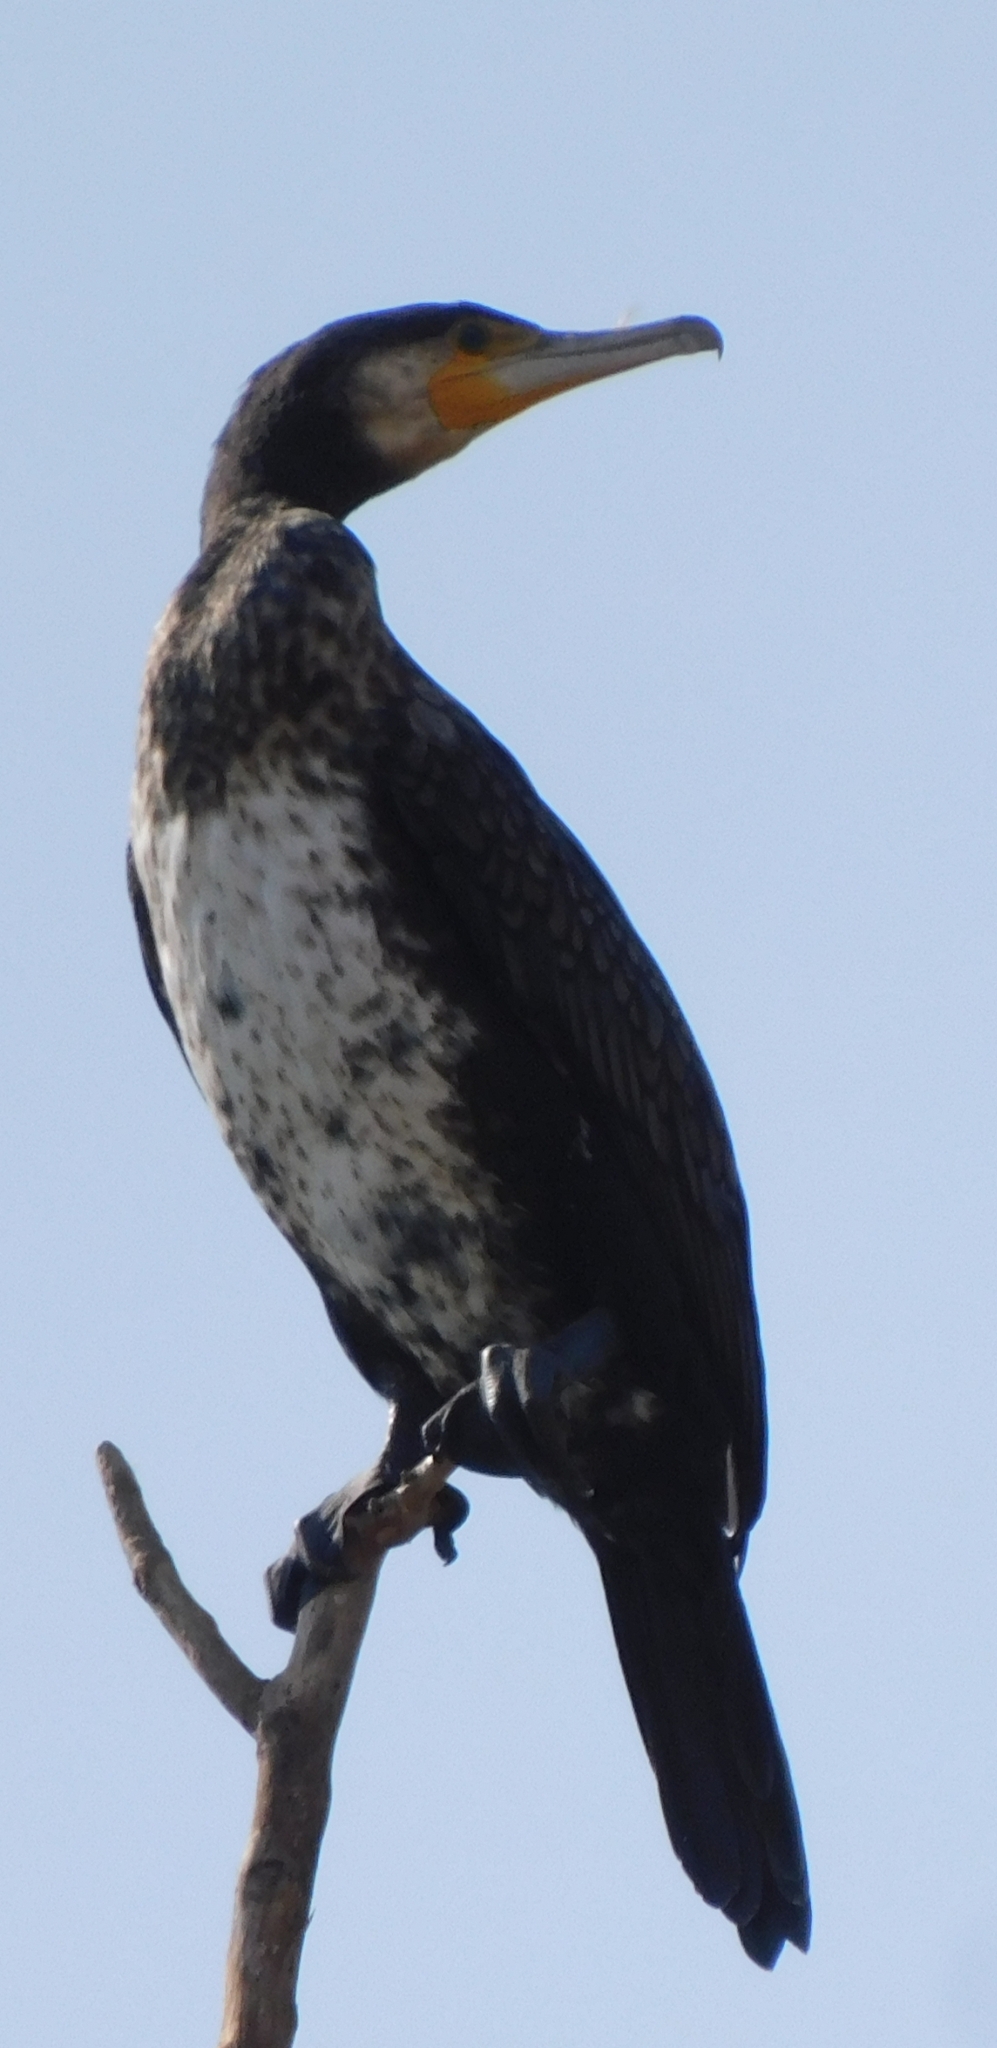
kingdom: Animalia
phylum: Chordata
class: Aves
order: Suliformes
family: Phalacrocoracidae
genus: Phalacrocorax
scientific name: Phalacrocorax carbo
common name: Great cormorant
